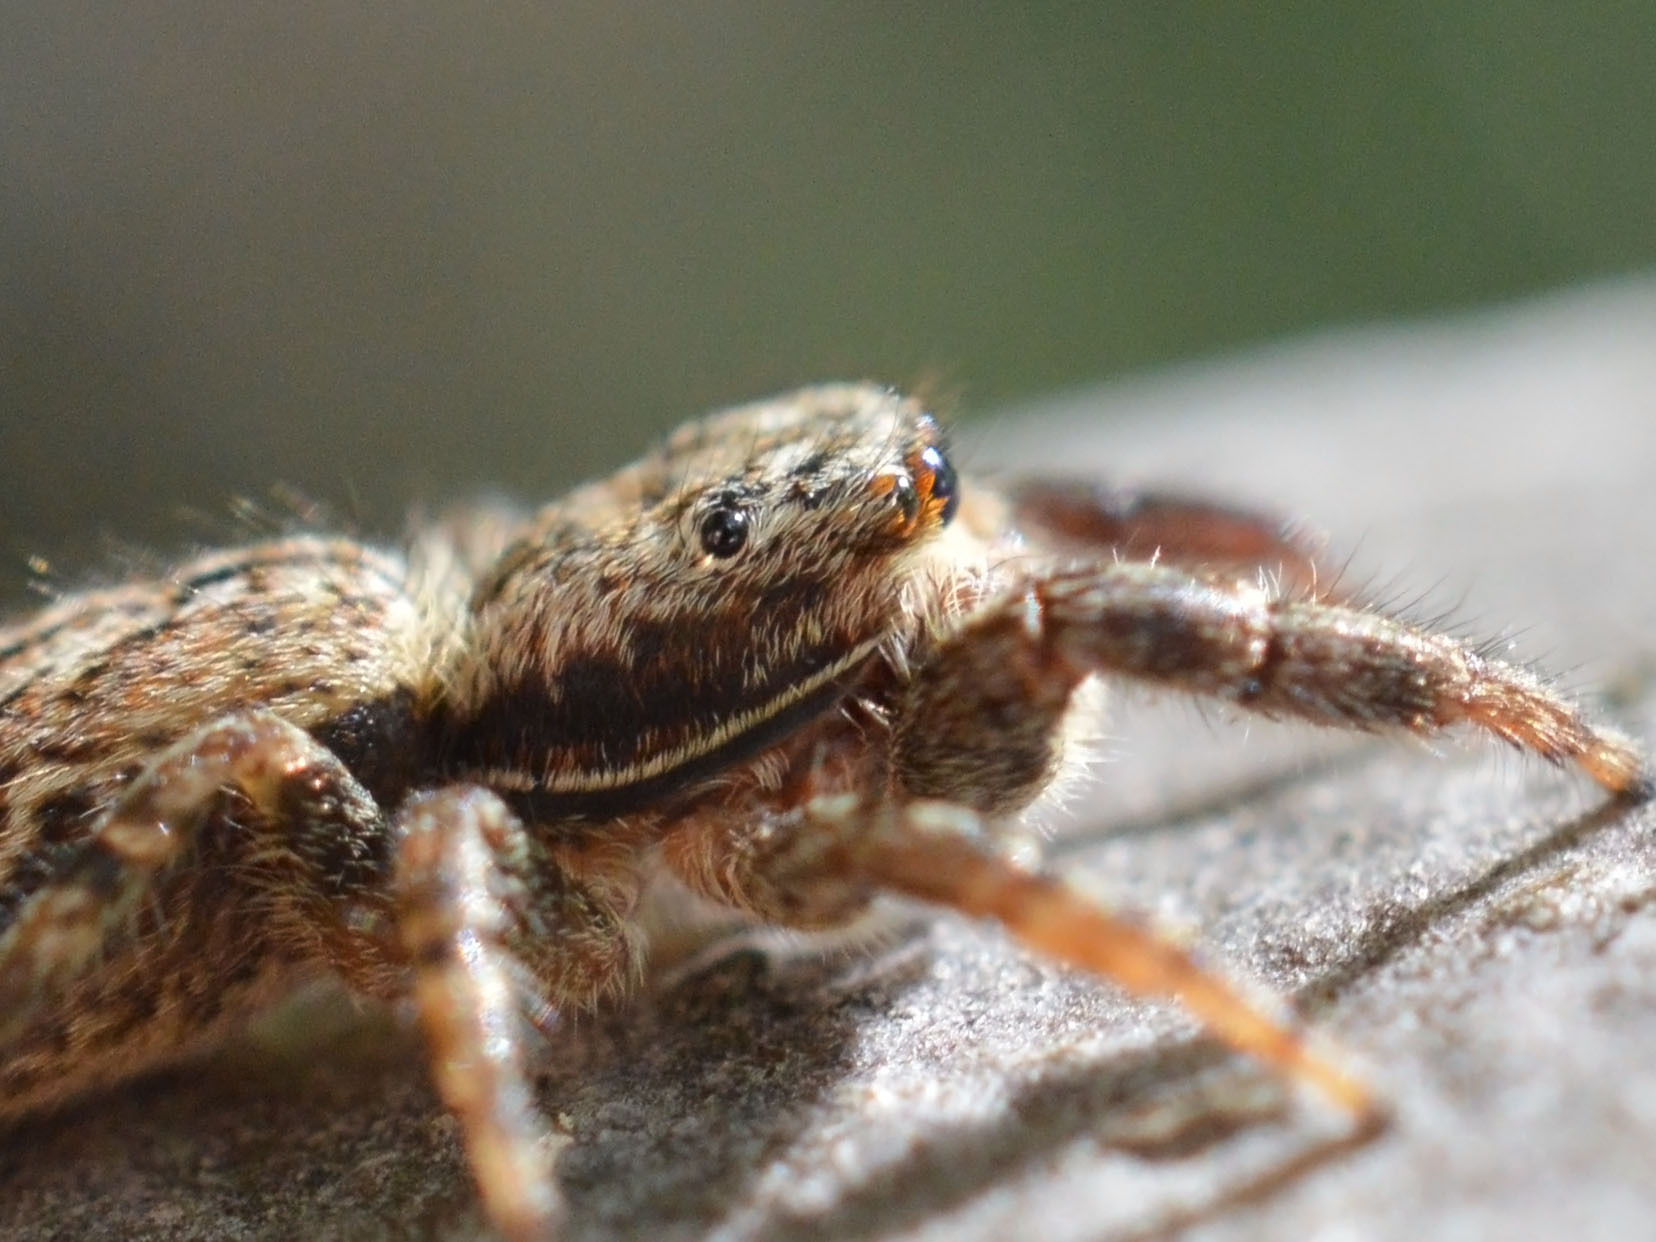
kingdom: Animalia
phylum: Arthropoda
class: Arachnida
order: Araneae
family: Salticidae
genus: Marpissa
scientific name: Marpissa muscosa
